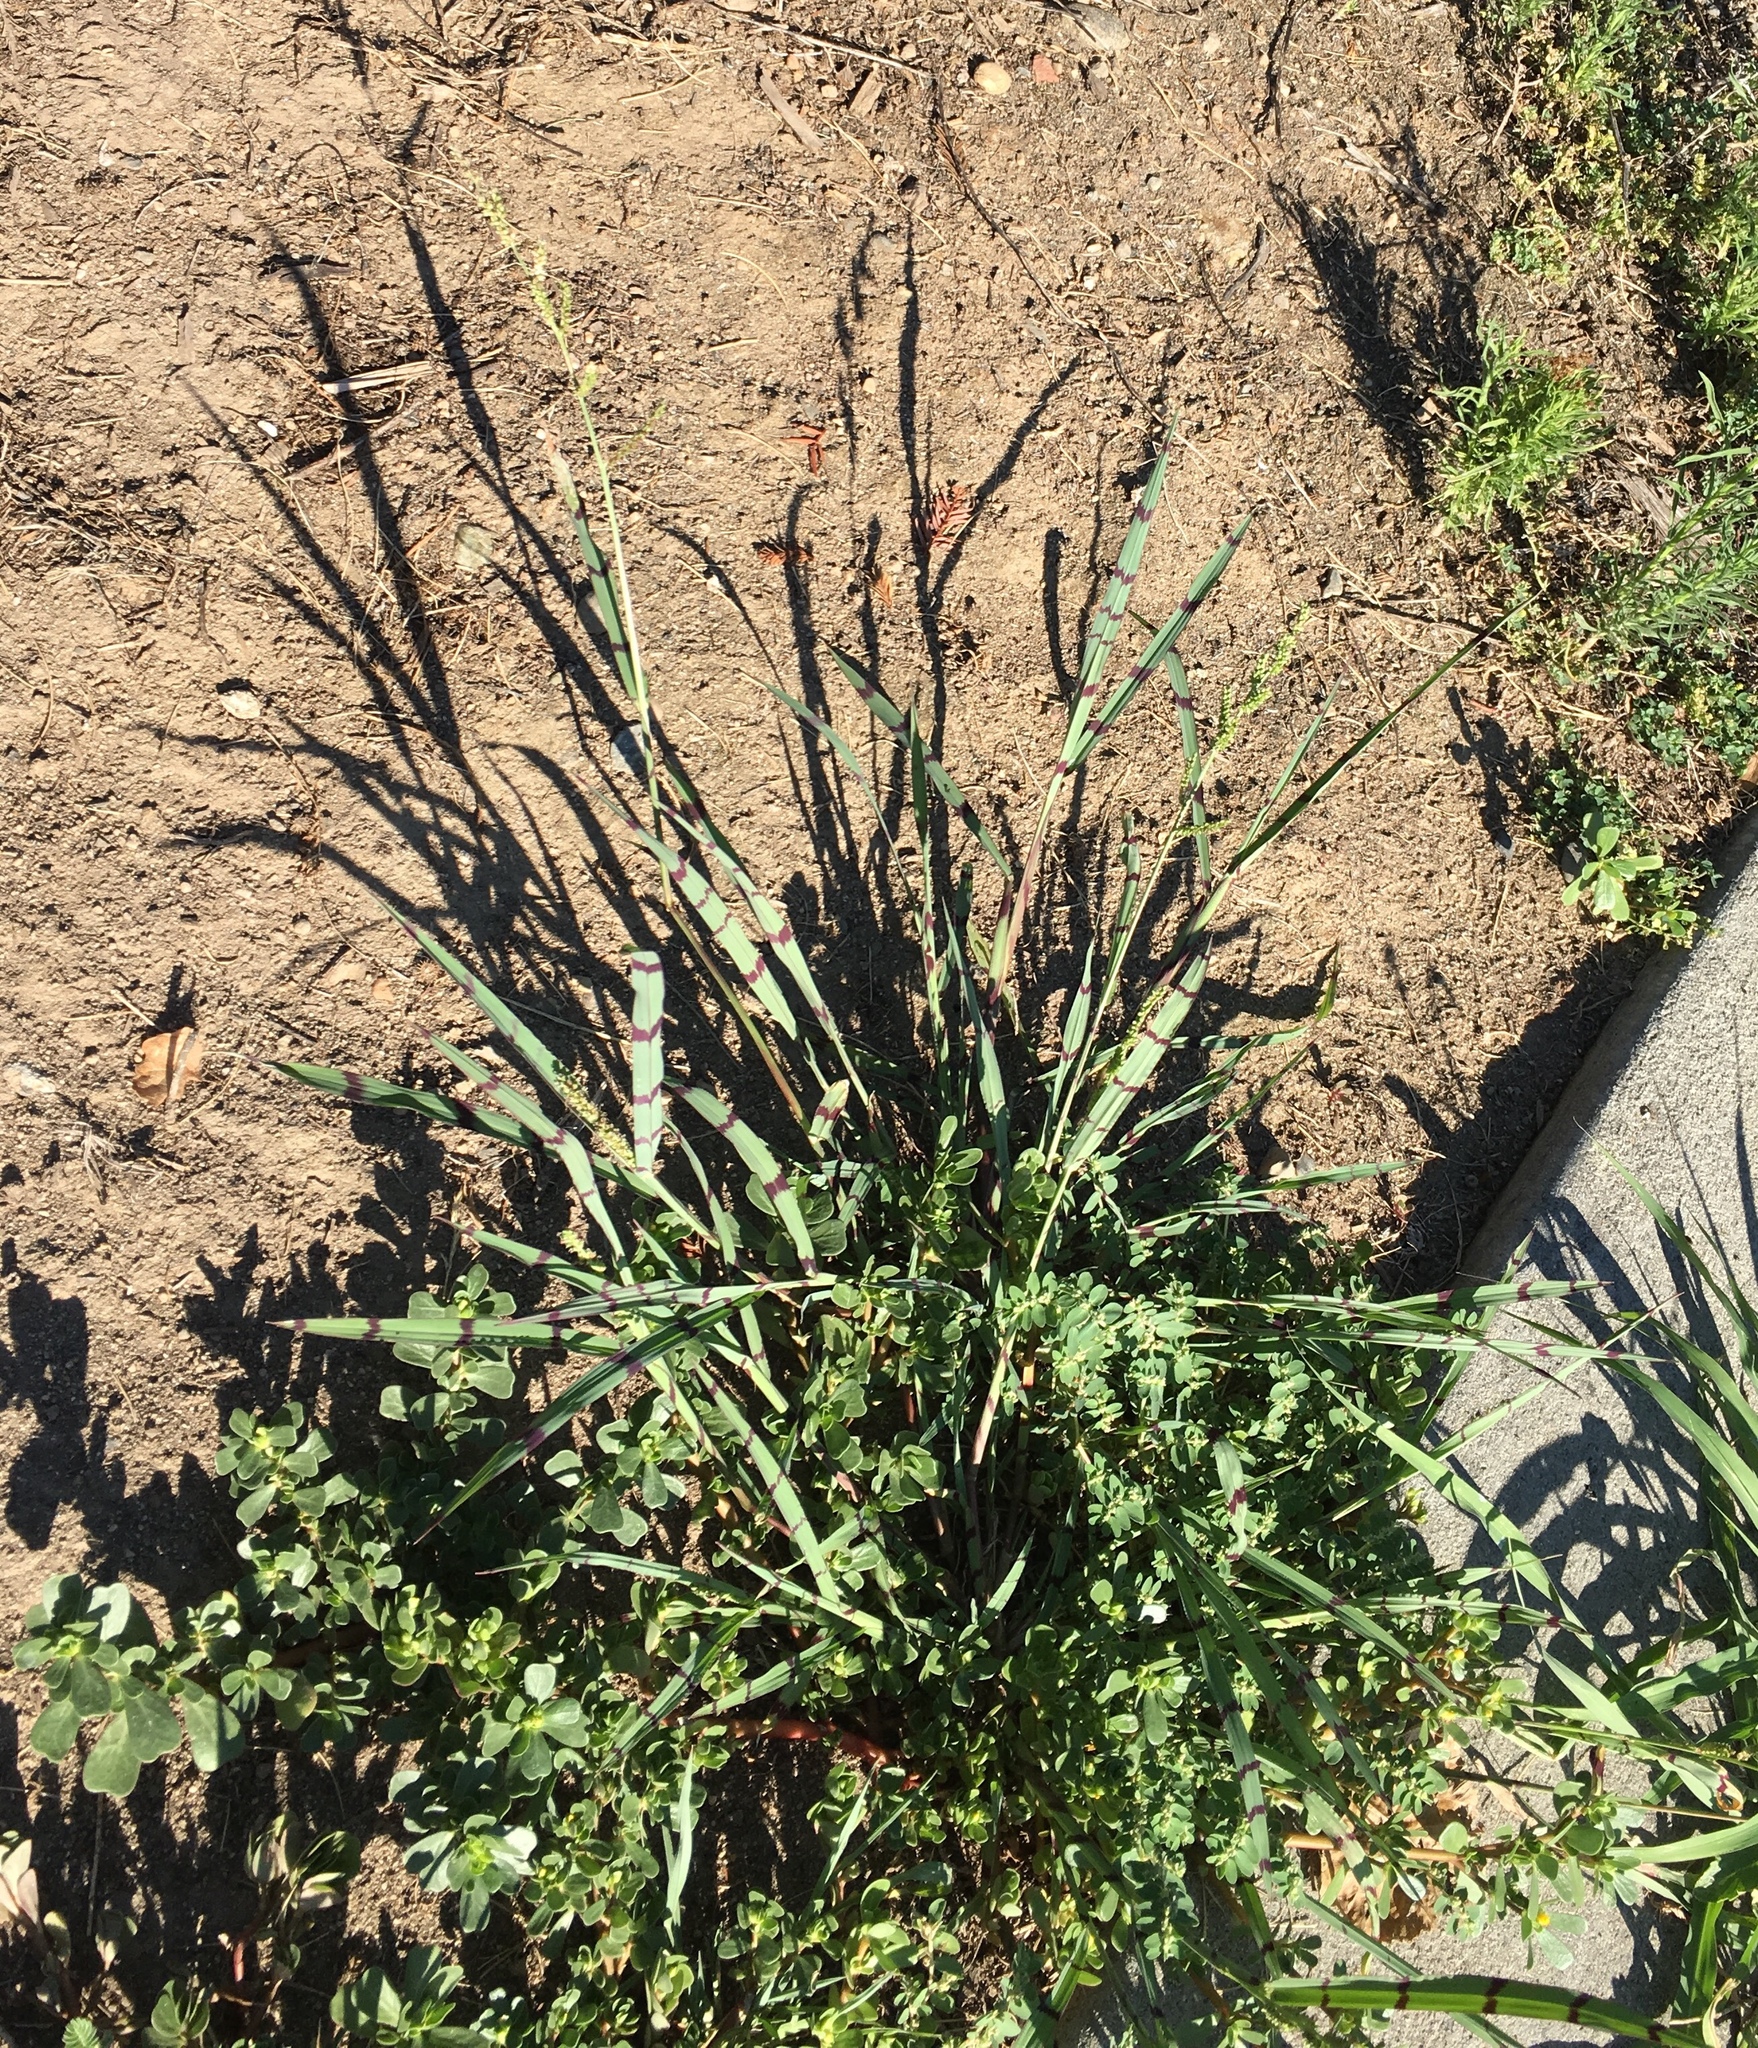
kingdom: Plantae
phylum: Tracheophyta
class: Liliopsida
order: Poales
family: Poaceae
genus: Echinochloa
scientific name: Echinochloa colonum
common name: Jungle rice
